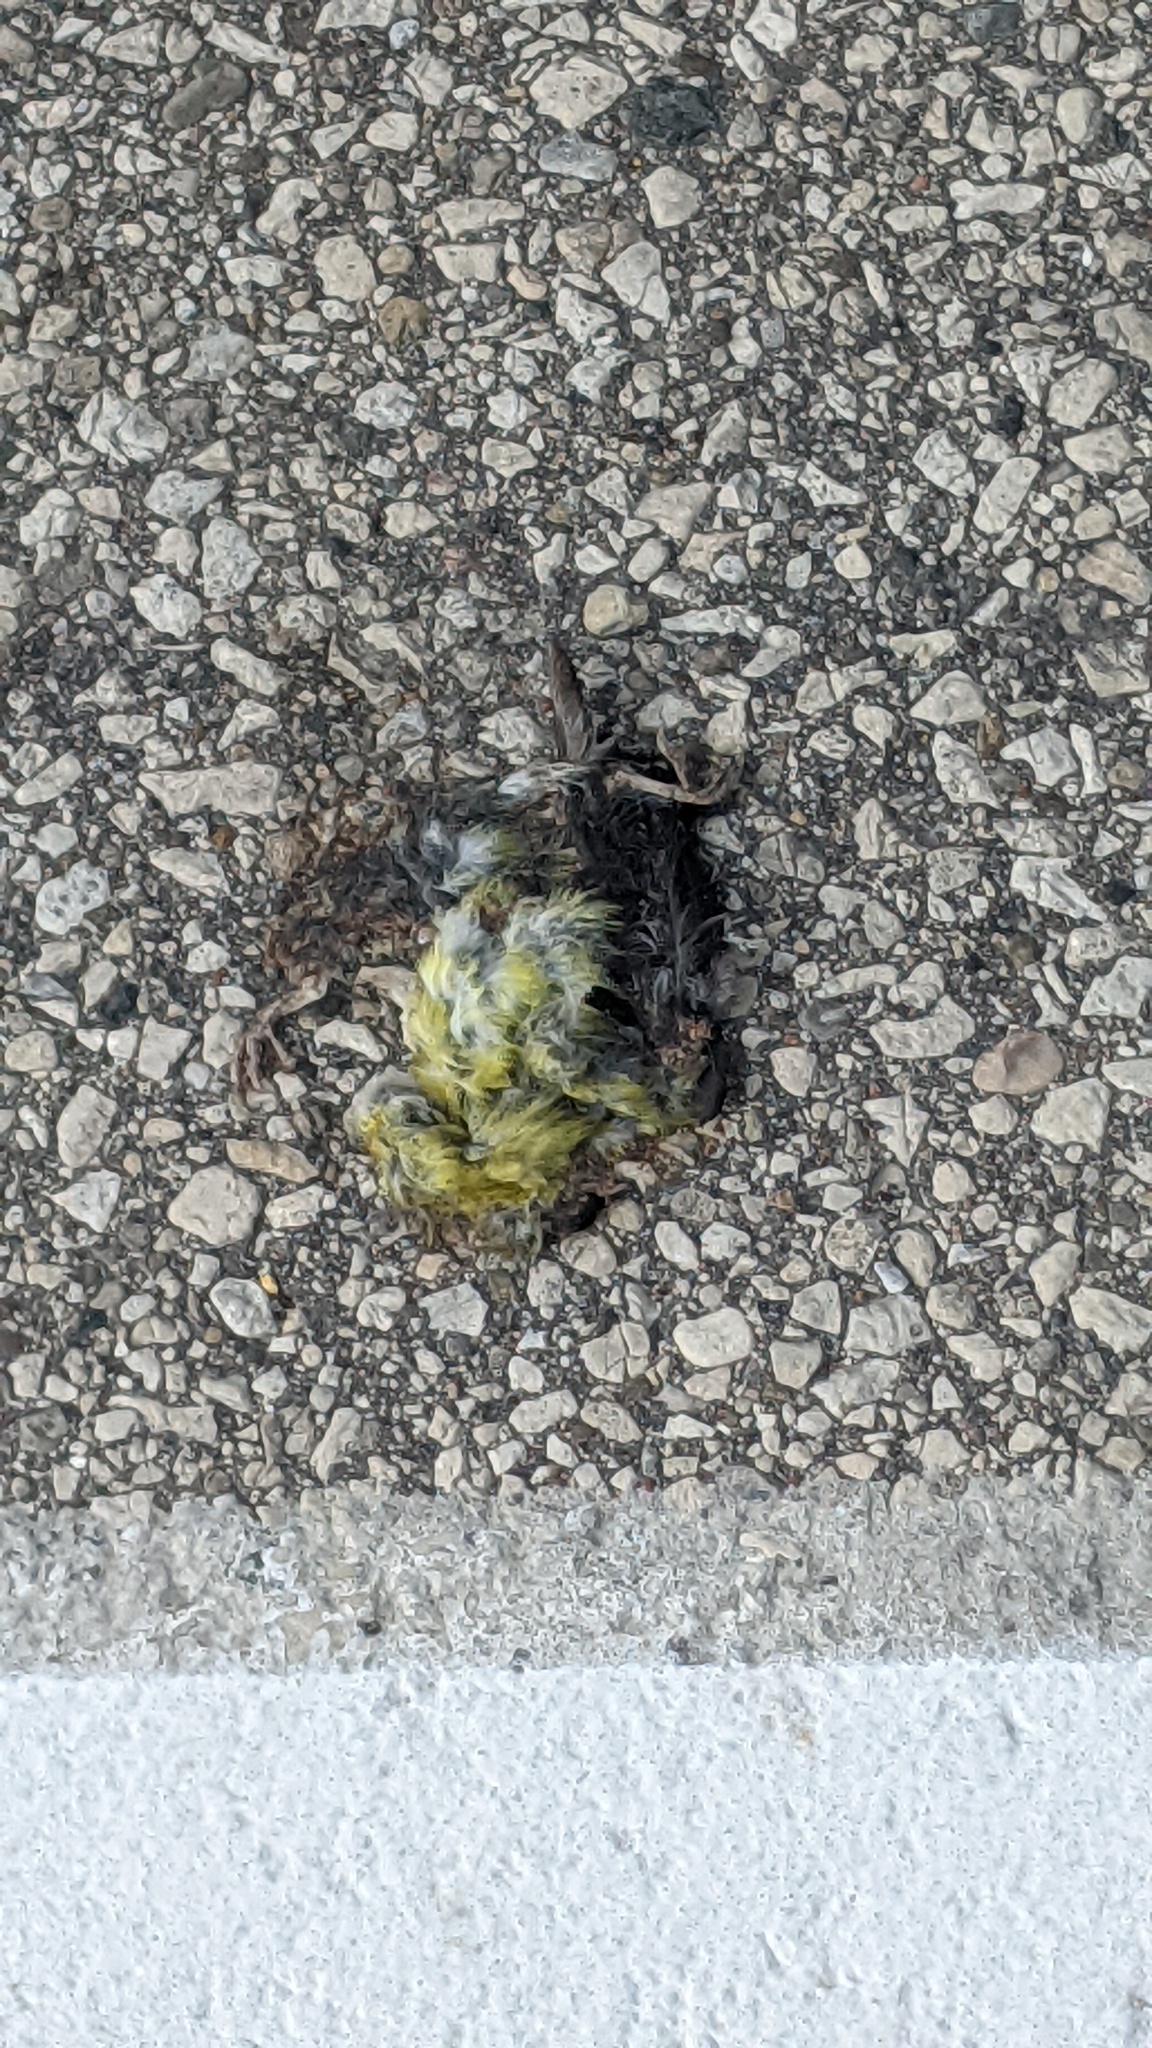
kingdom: Animalia
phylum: Chordata
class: Aves
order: Passeriformes
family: Fringillidae
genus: Spinus
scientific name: Spinus tristis
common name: American goldfinch
